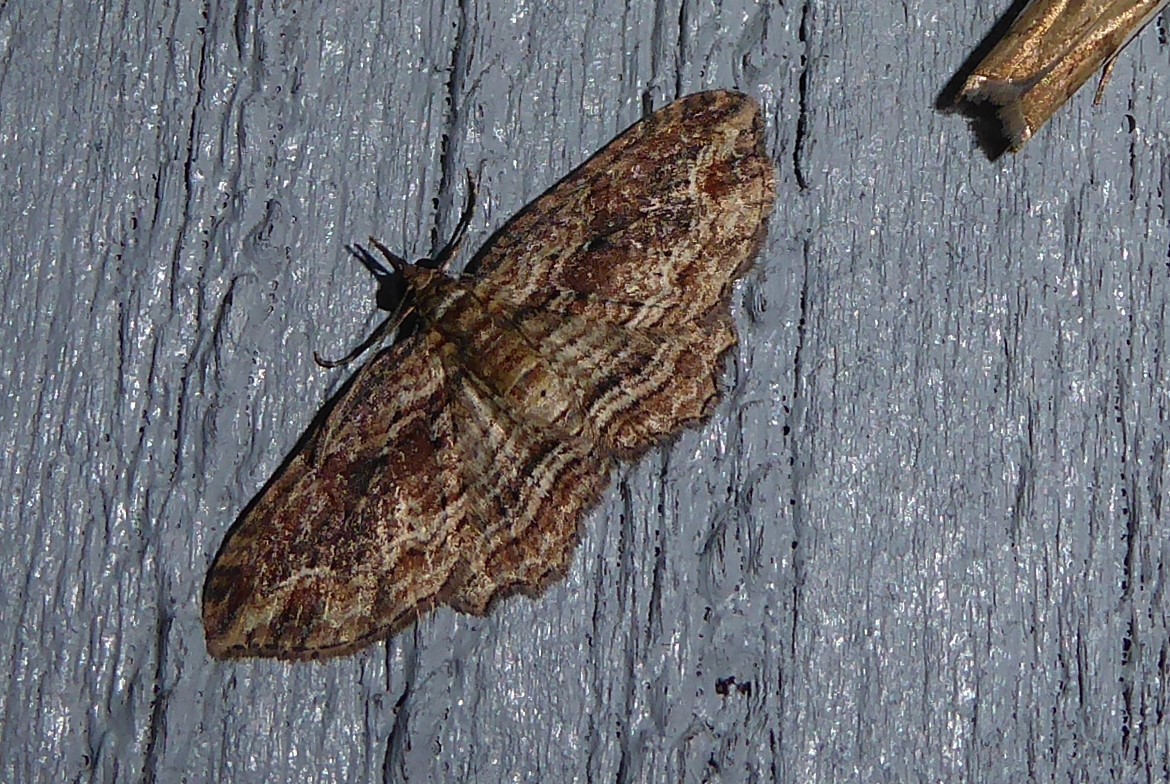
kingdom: Animalia
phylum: Arthropoda
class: Insecta
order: Lepidoptera
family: Geometridae
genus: Chloroclystis
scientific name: Chloroclystis filata
